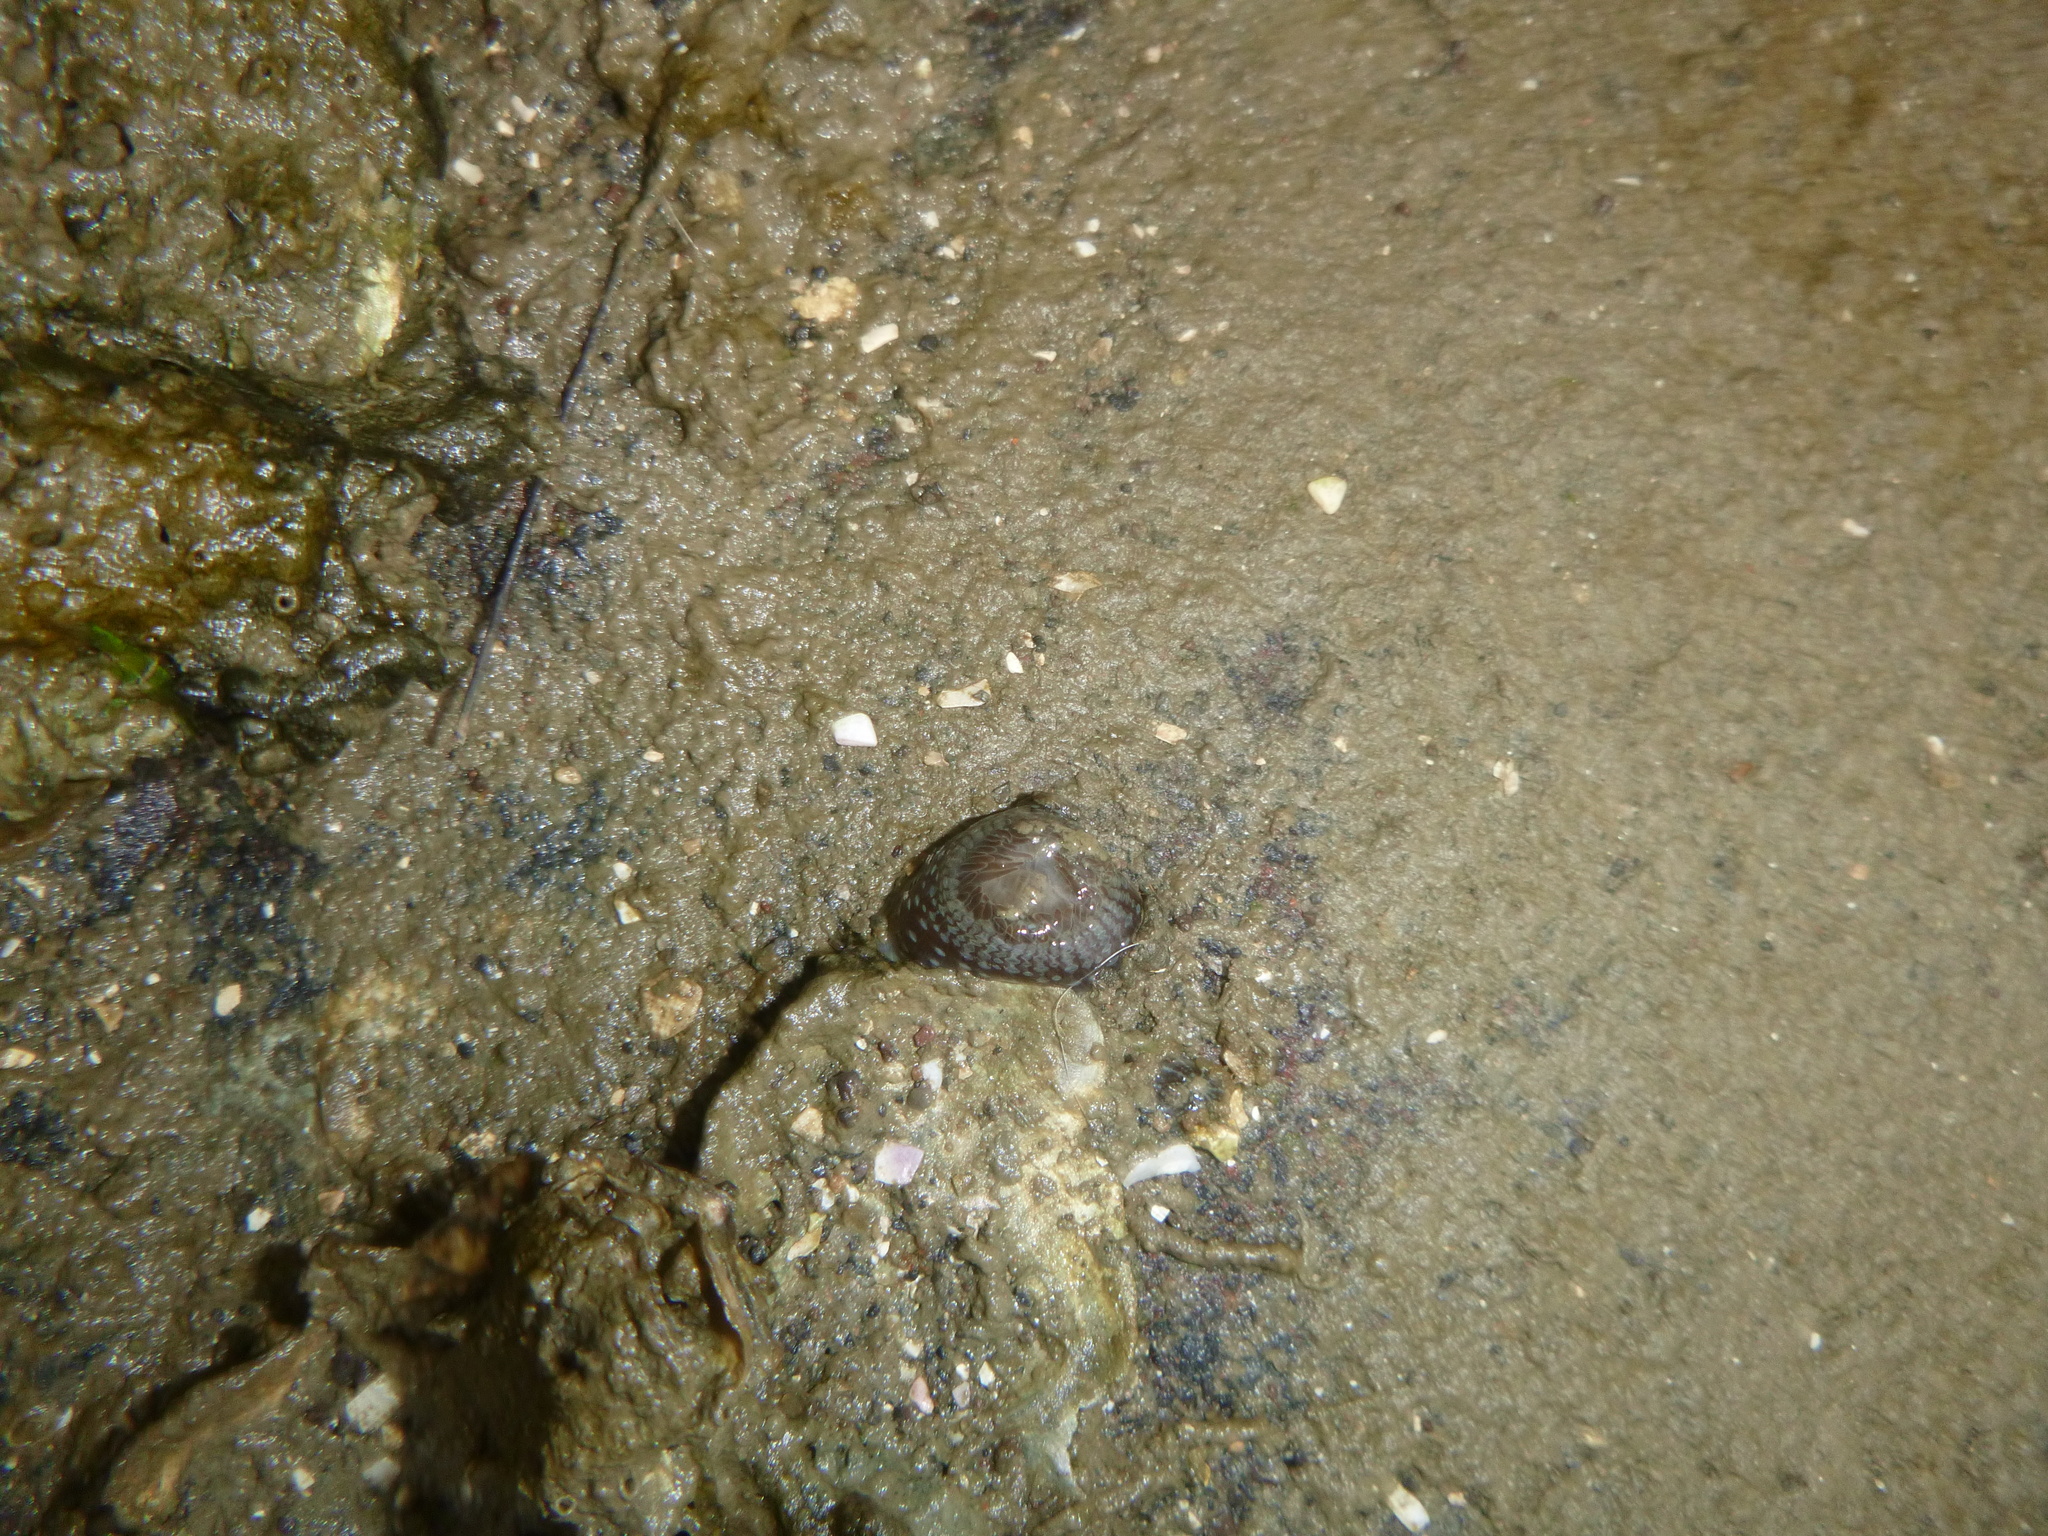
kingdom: Animalia
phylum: Cnidaria
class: Anthozoa
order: Actiniaria
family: Actiniidae
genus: Anthopleura
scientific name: Anthopleura hermaphroditica
